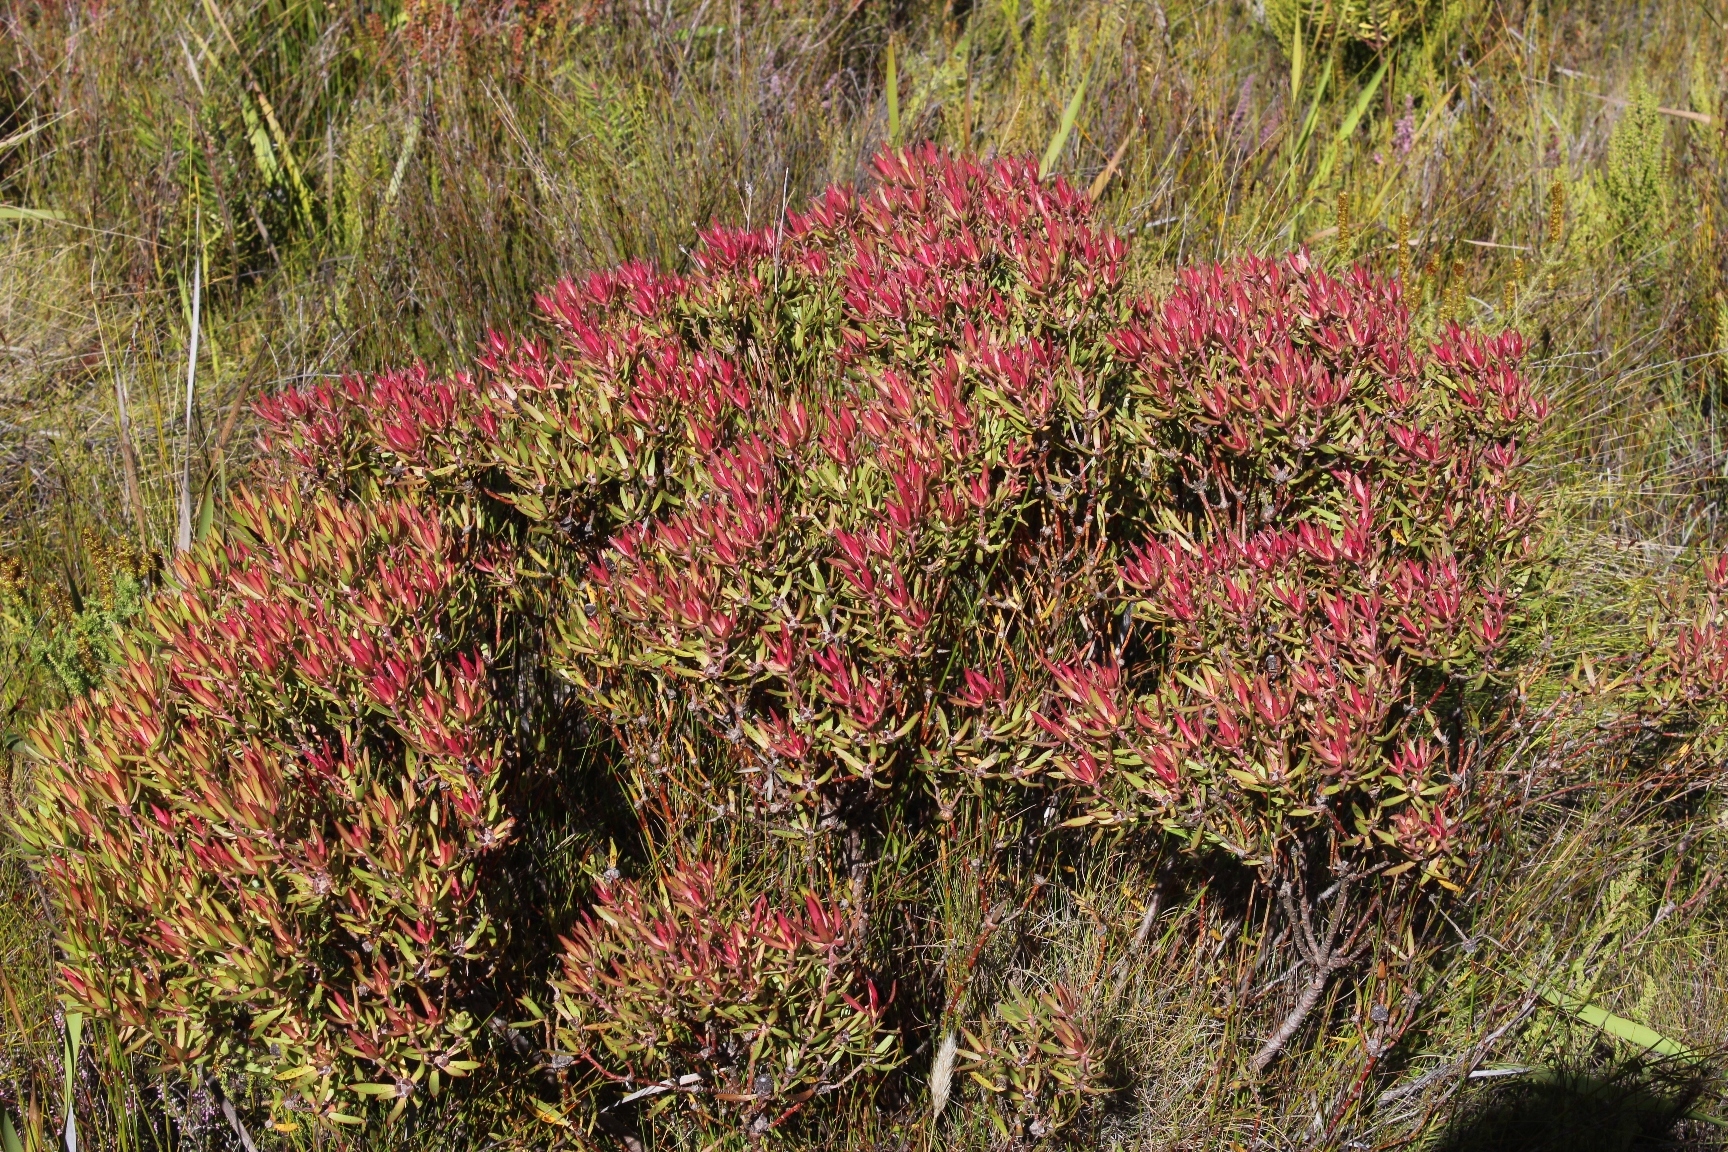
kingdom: Plantae
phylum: Tracheophyta
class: Magnoliopsida
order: Proteales
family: Proteaceae
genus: Leucadendron
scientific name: Leucadendron spissifolium
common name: Spear-leaf conebush
